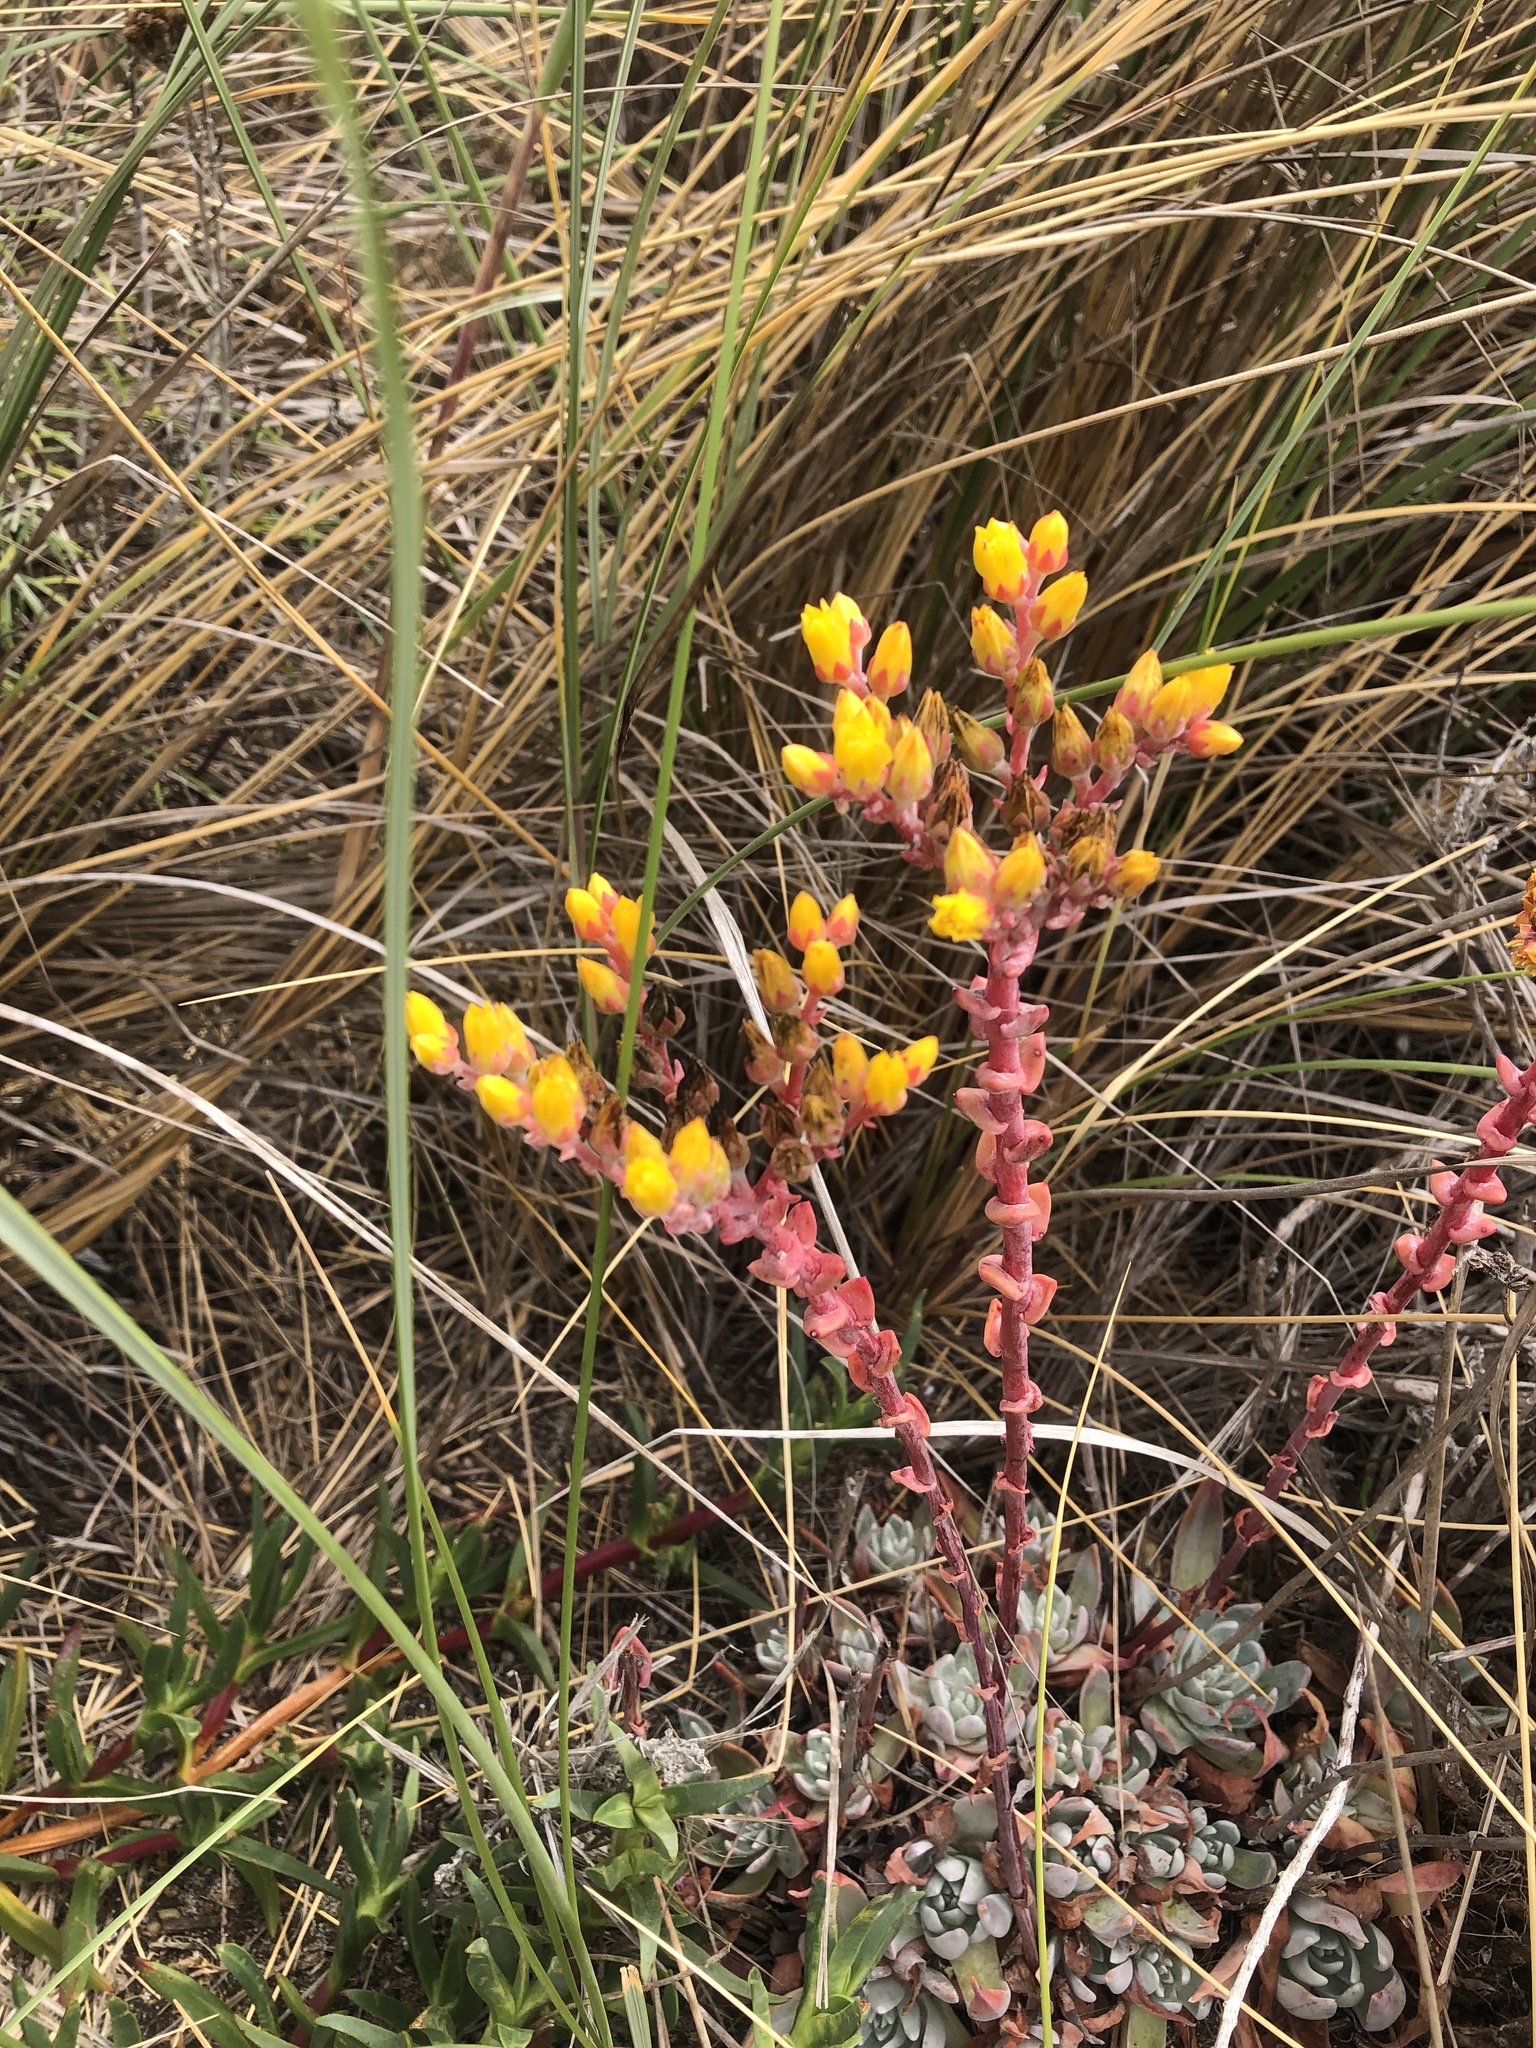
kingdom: Plantae
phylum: Tracheophyta
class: Magnoliopsida
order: Saxifragales
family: Crassulaceae
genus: Dudleya
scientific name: Dudleya caespitosa
